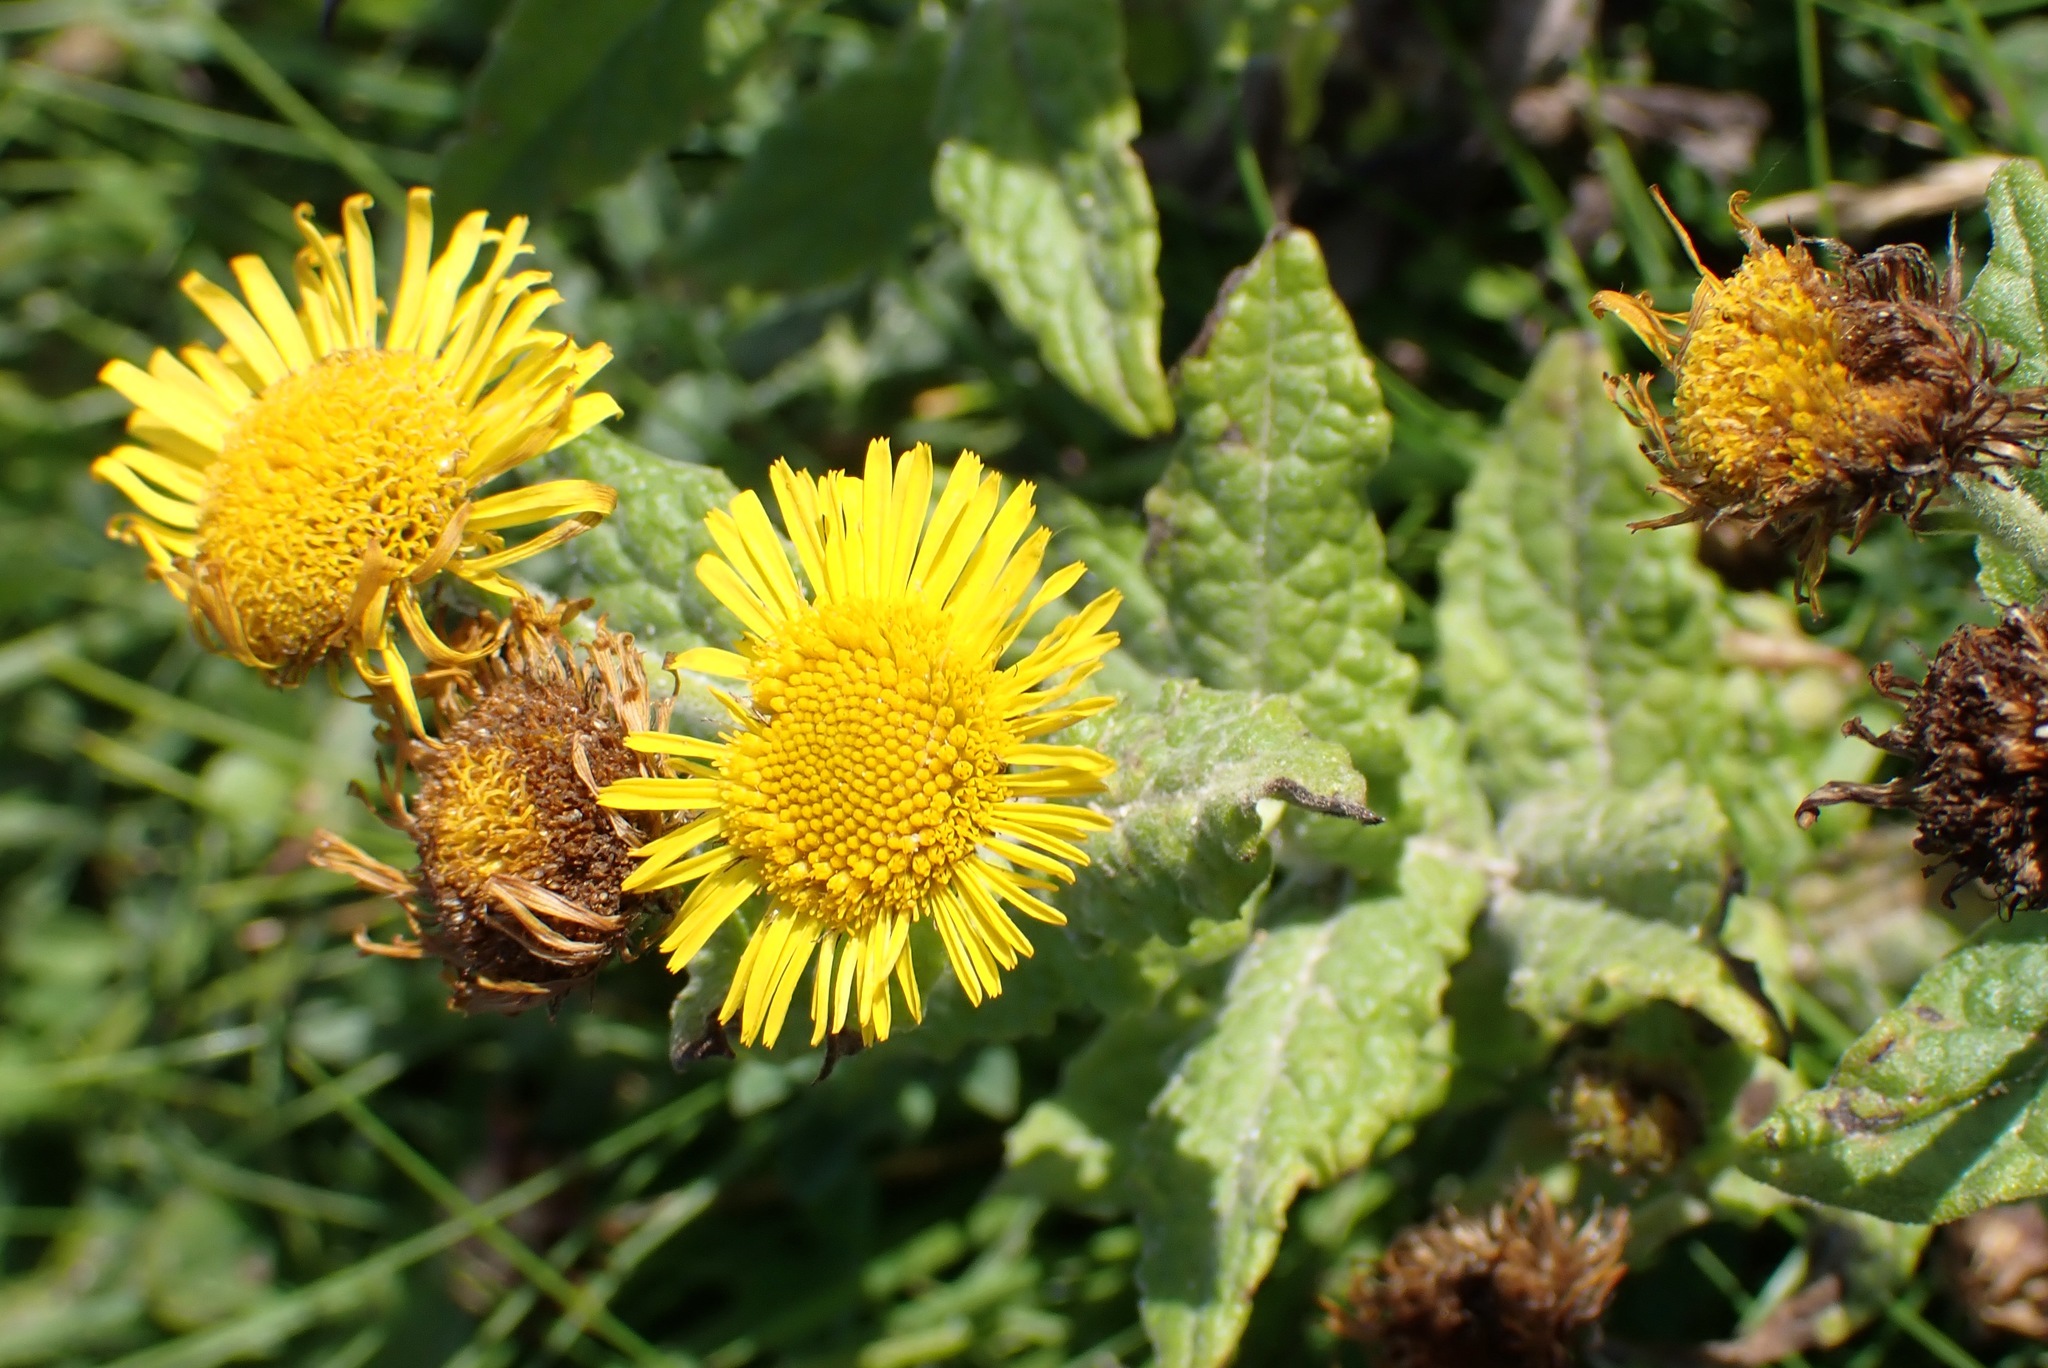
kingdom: Plantae
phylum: Tracheophyta
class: Magnoliopsida
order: Asterales
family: Asteraceae
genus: Pulicaria
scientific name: Pulicaria dysenterica
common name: Common fleabane
